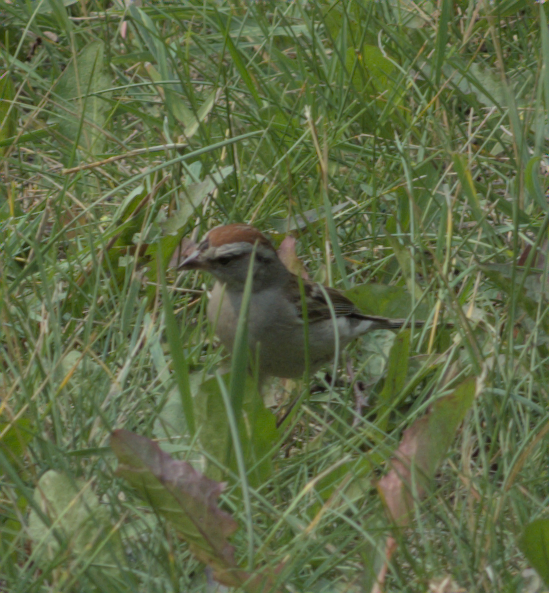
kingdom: Animalia
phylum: Chordata
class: Aves
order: Passeriformes
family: Passerellidae
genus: Spizella
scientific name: Spizella passerina
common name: Chipping sparrow
